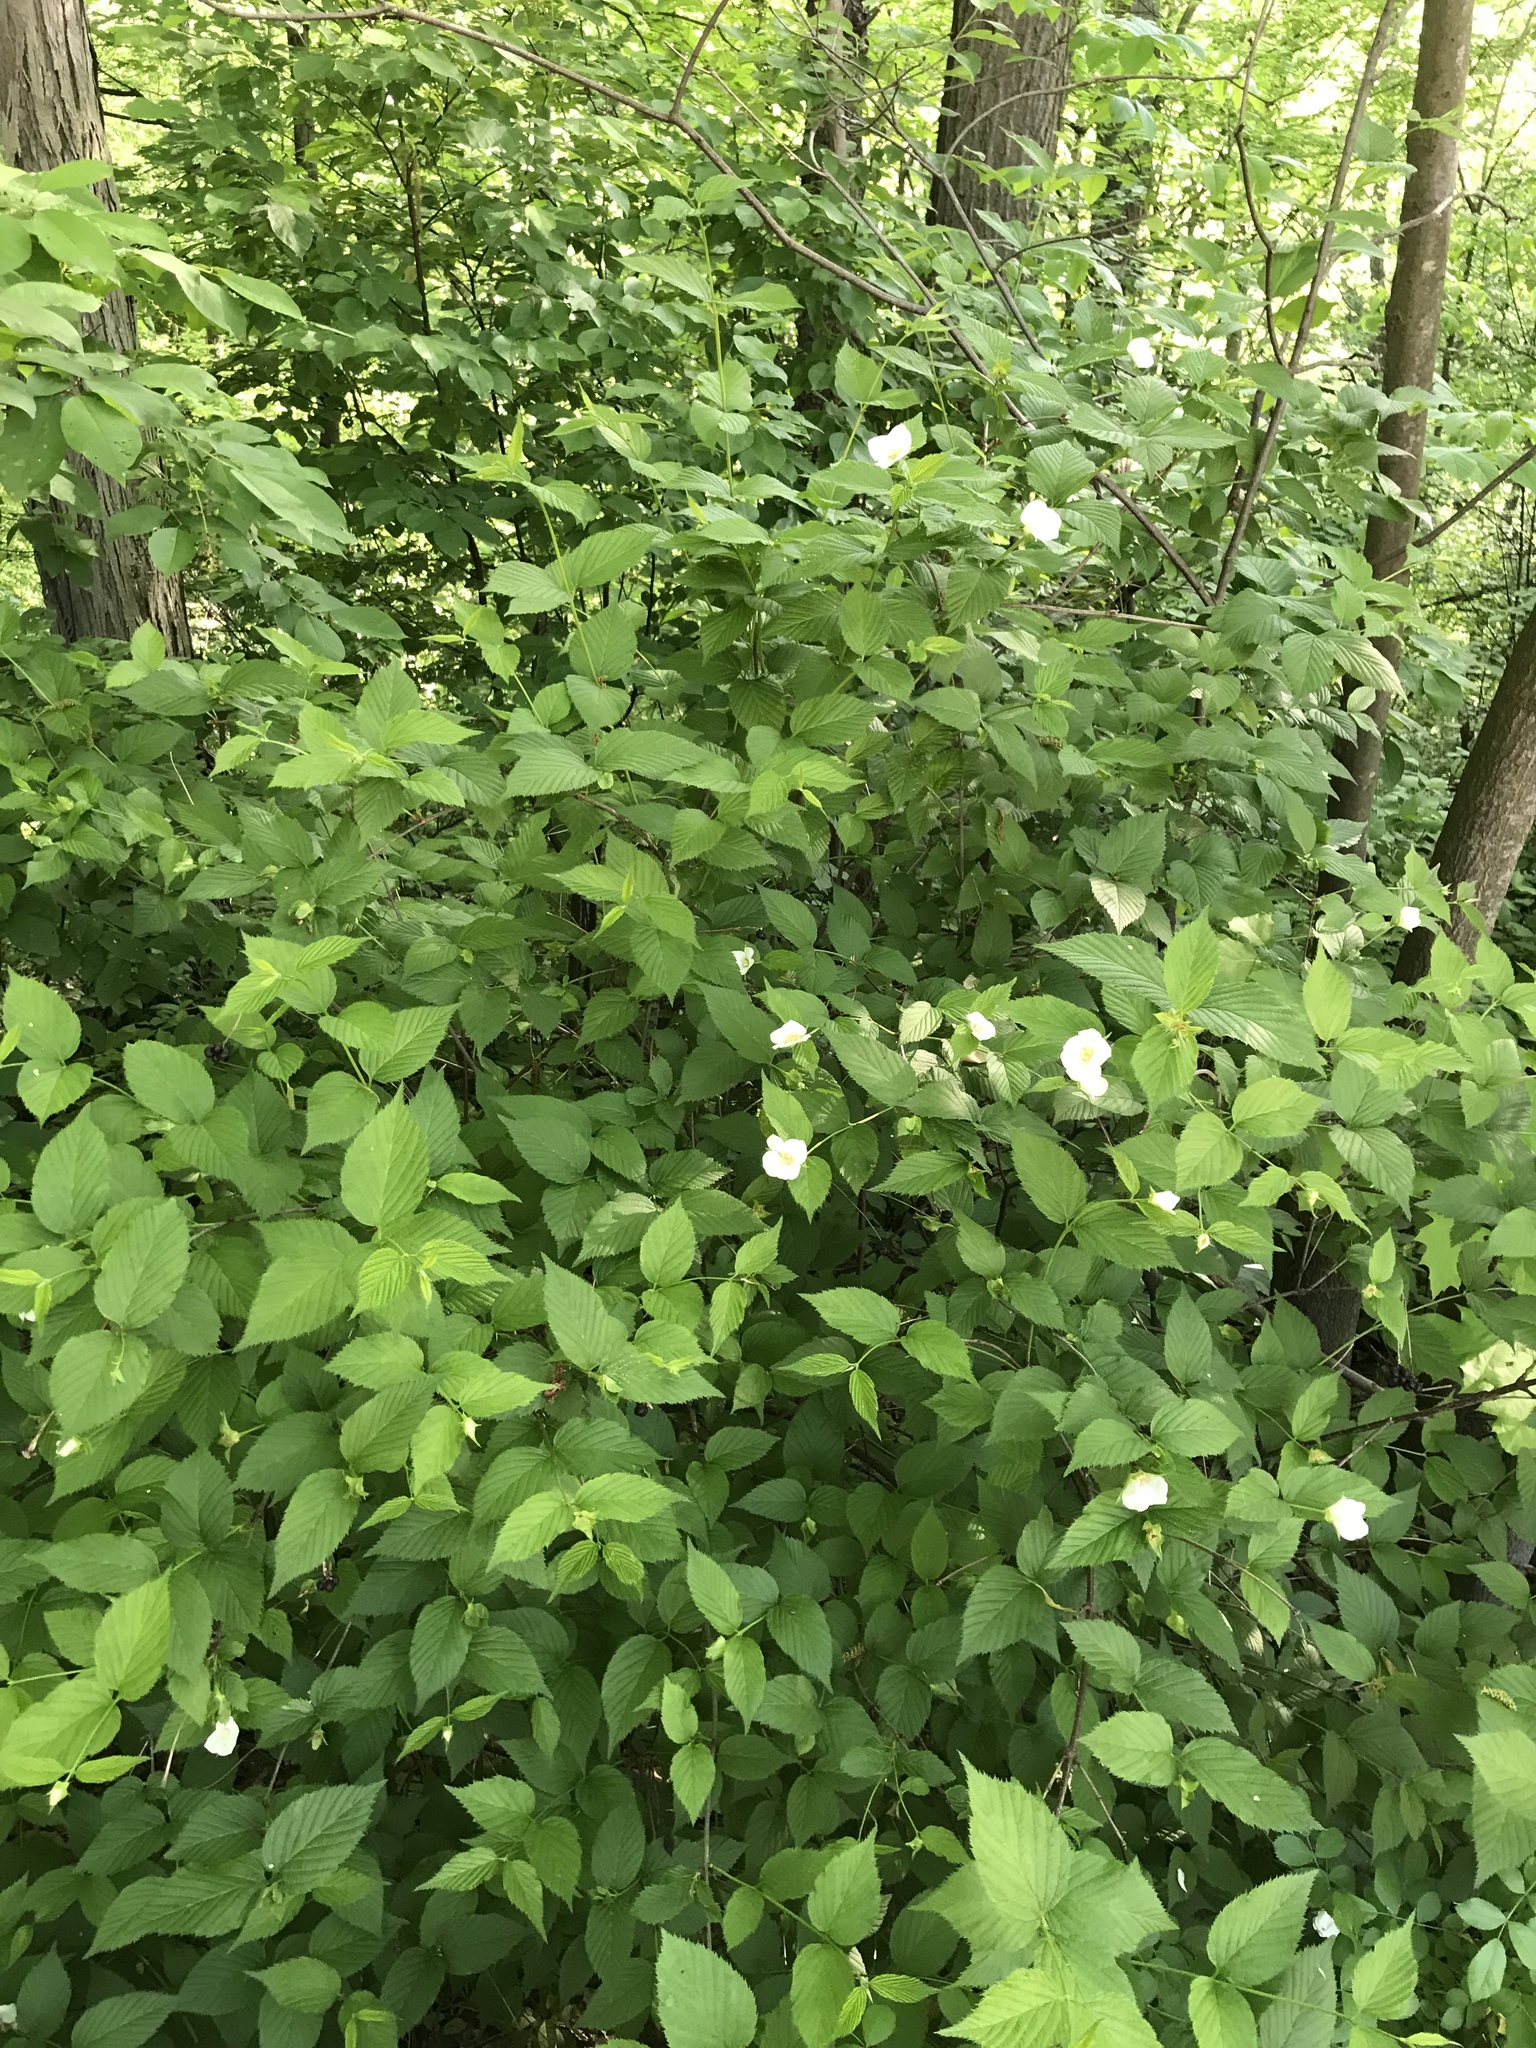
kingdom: Plantae
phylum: Tracheophyta
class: Magnoliopsida
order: Rosales
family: Rosaceae
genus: Rhodotypos
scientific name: Rhodotypos scandens
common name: Jetbead
